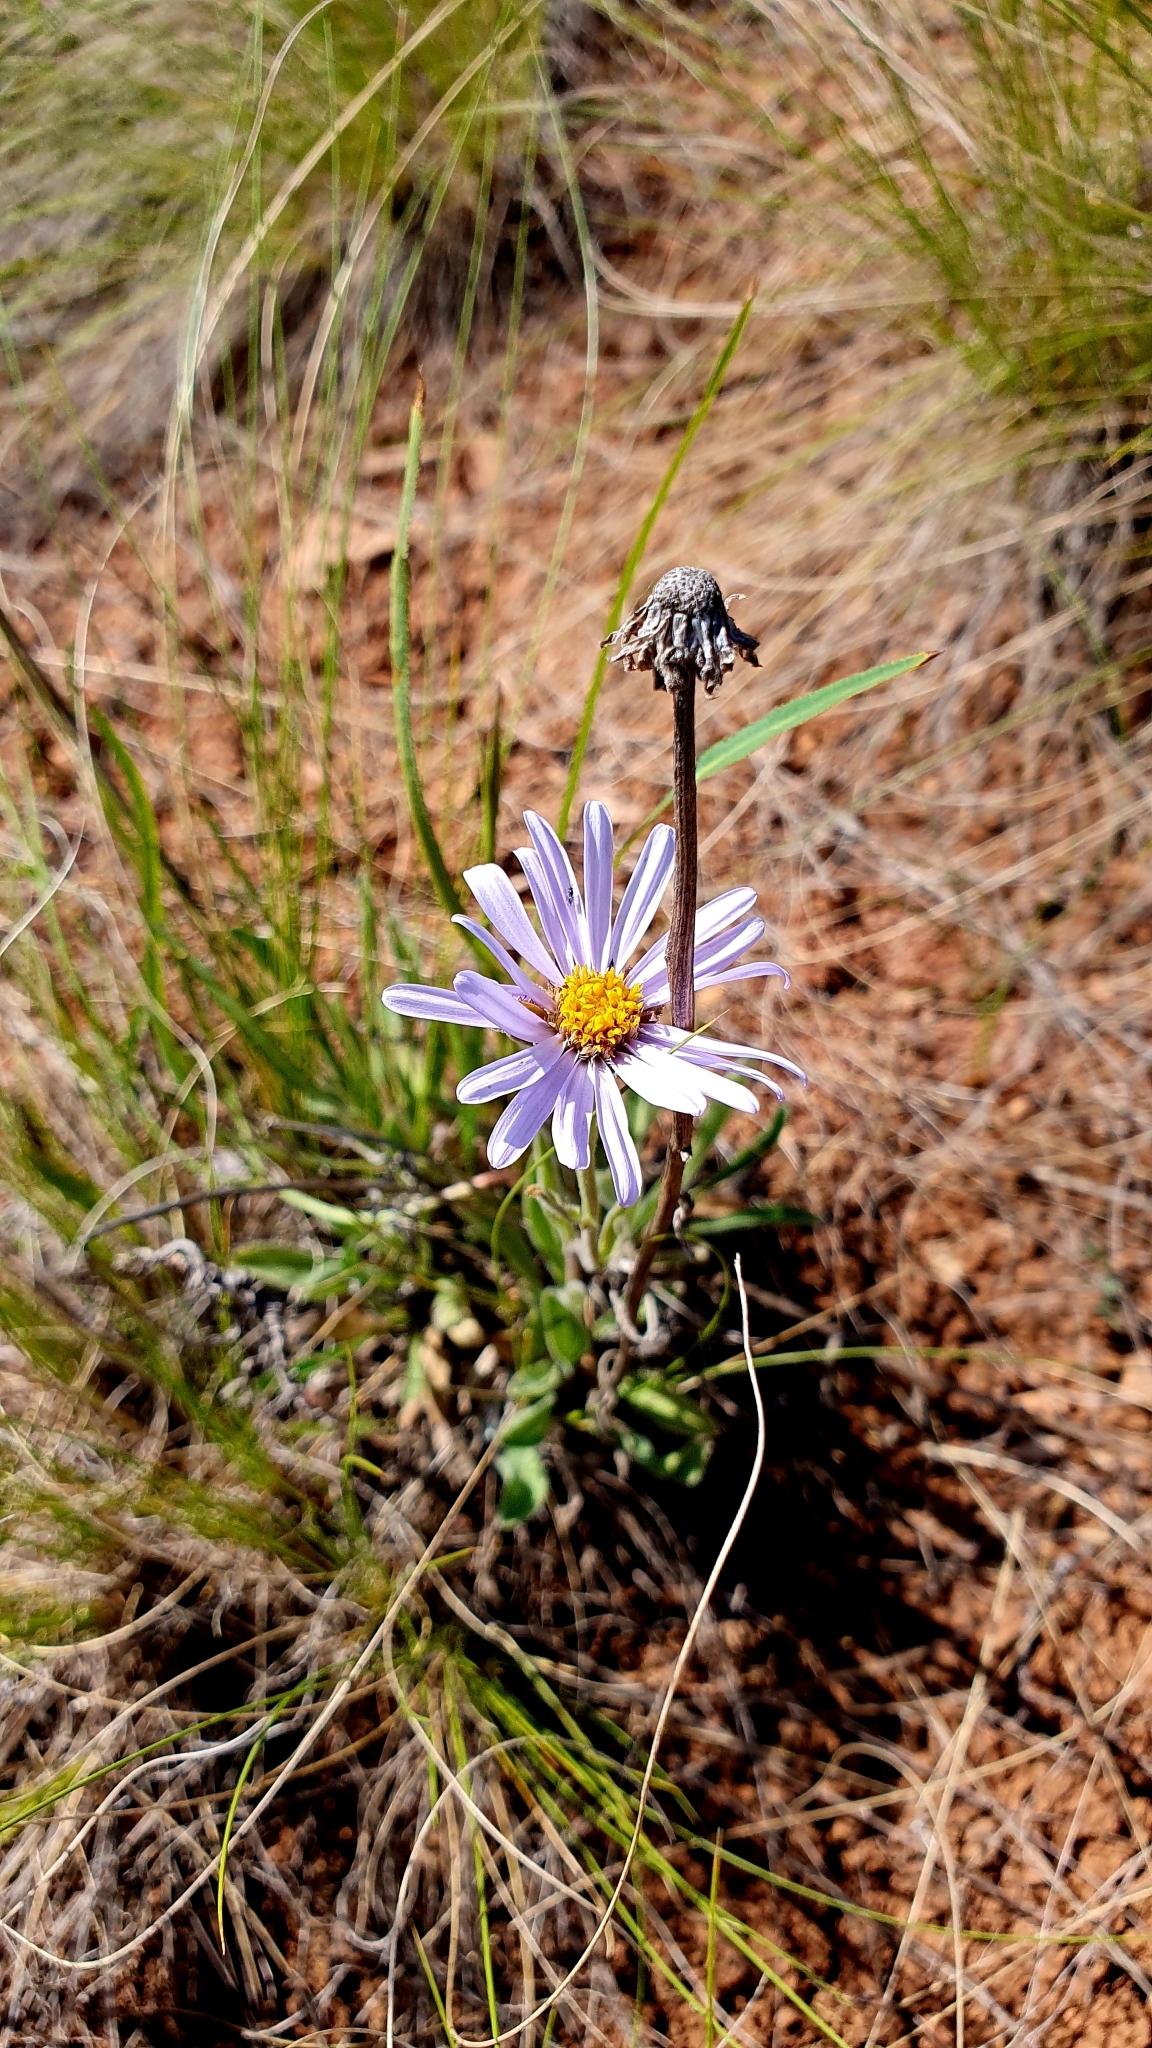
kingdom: Plantae
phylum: Tracheophyta
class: Magnoliopsida
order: Asterales
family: Asteraceae
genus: Aster
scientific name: Aster alpinus
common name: Alpine aster
